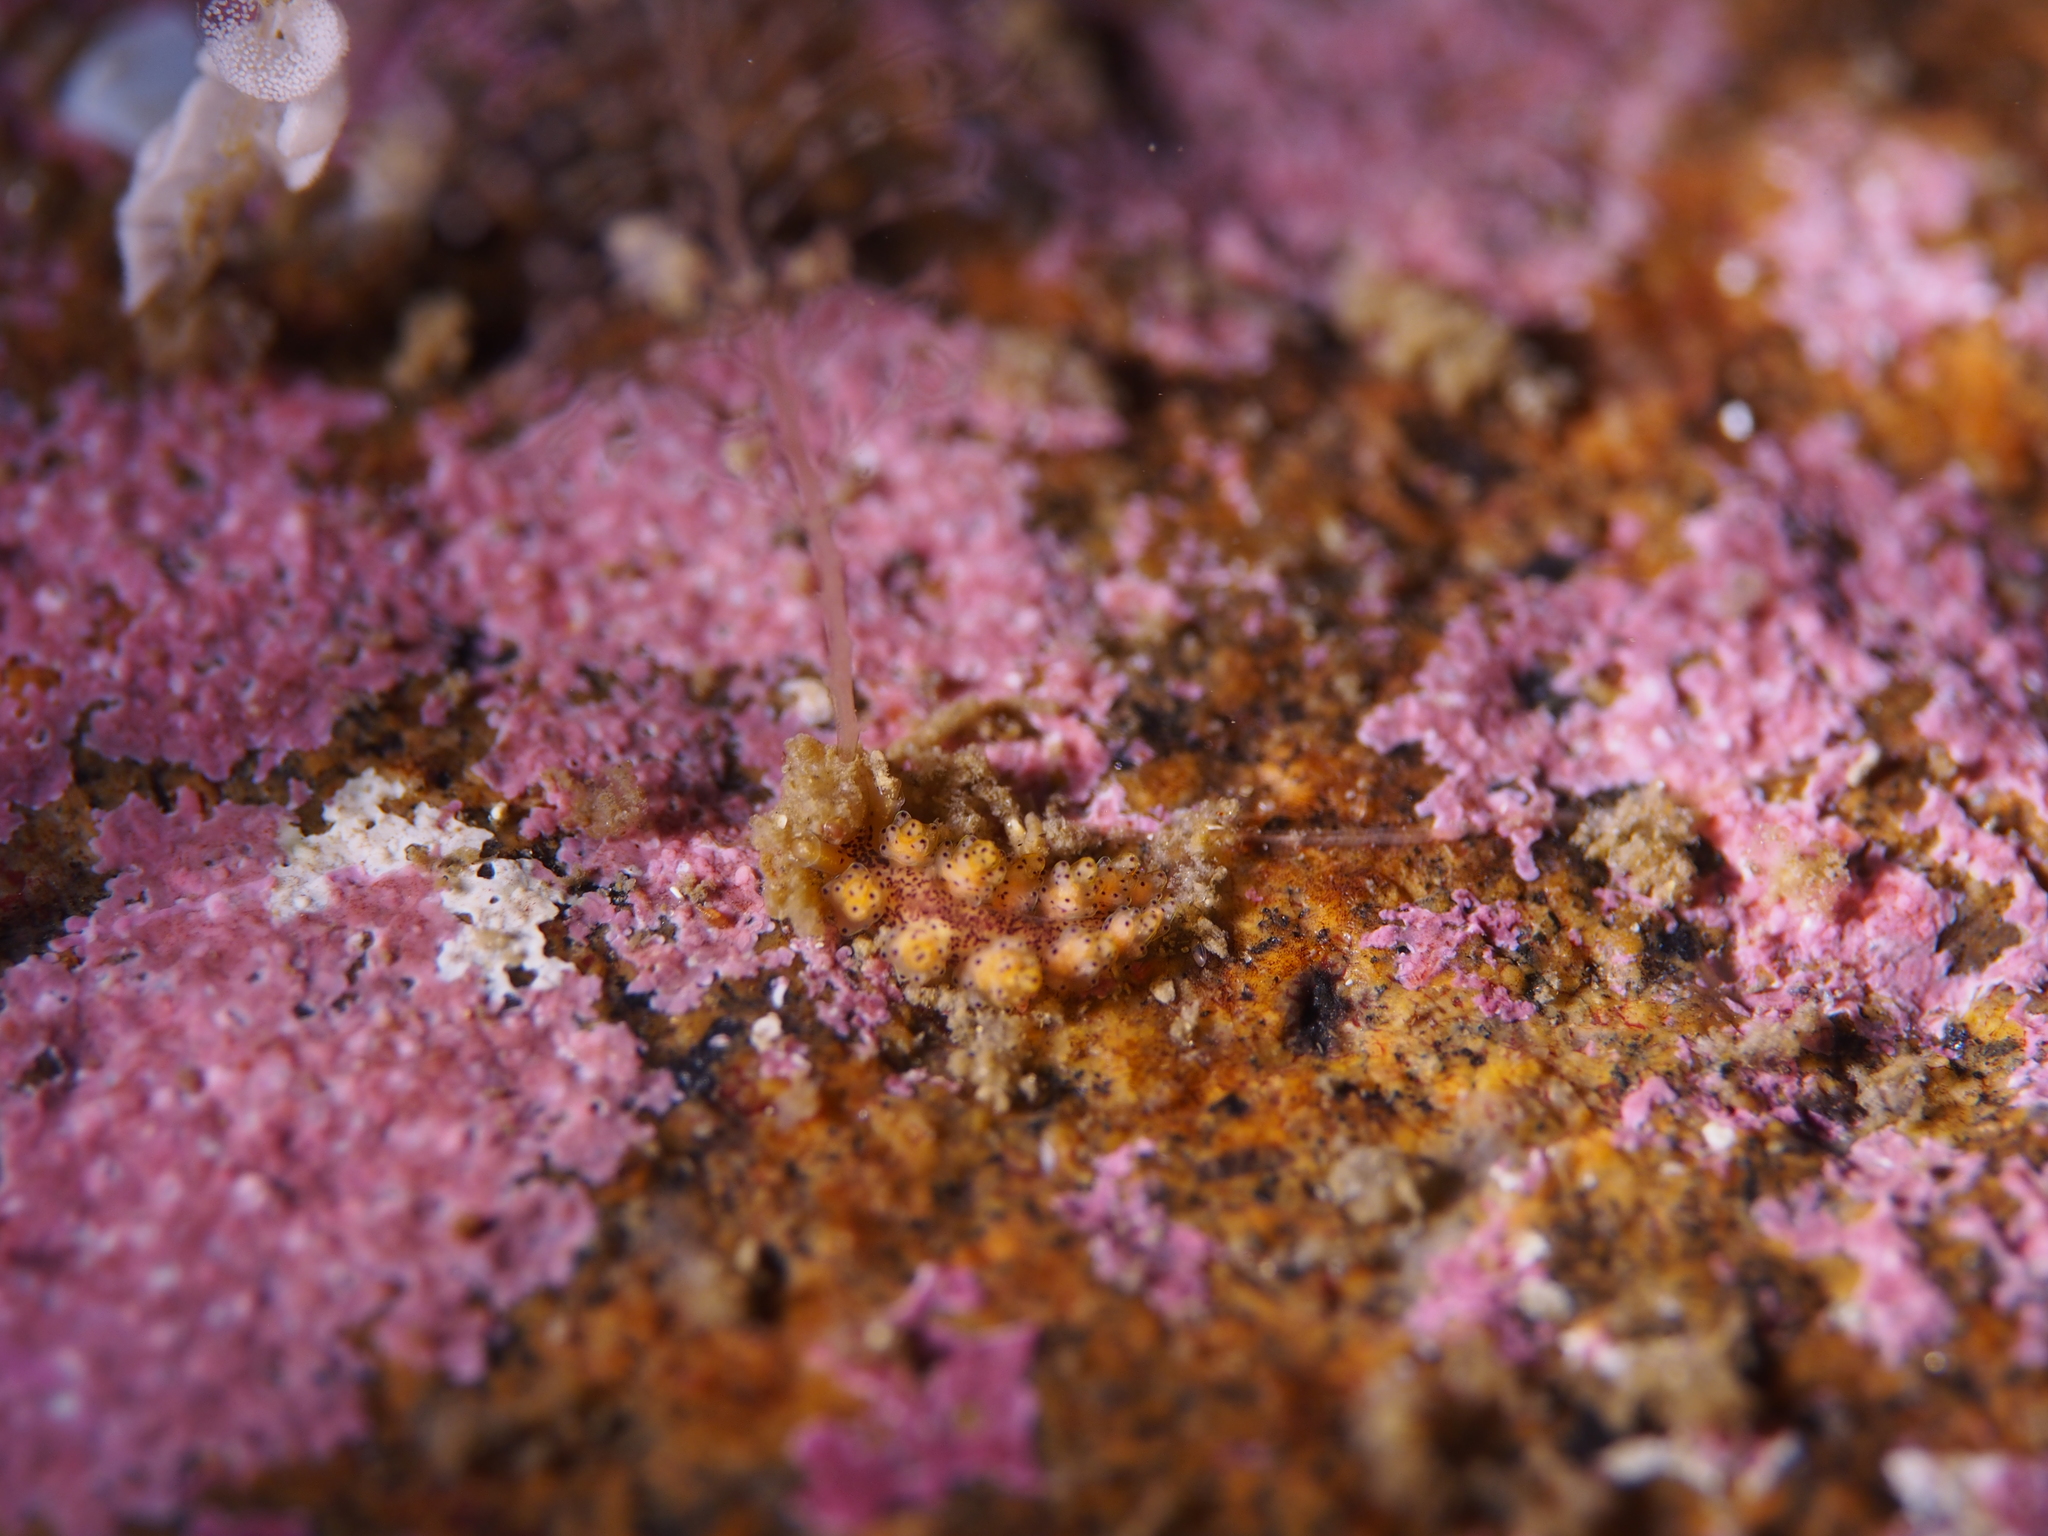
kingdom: Animalia
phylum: Mollusca
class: Gastropoda
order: Nudibranchia
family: Dotidae
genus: Doto
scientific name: Doto dunnei
